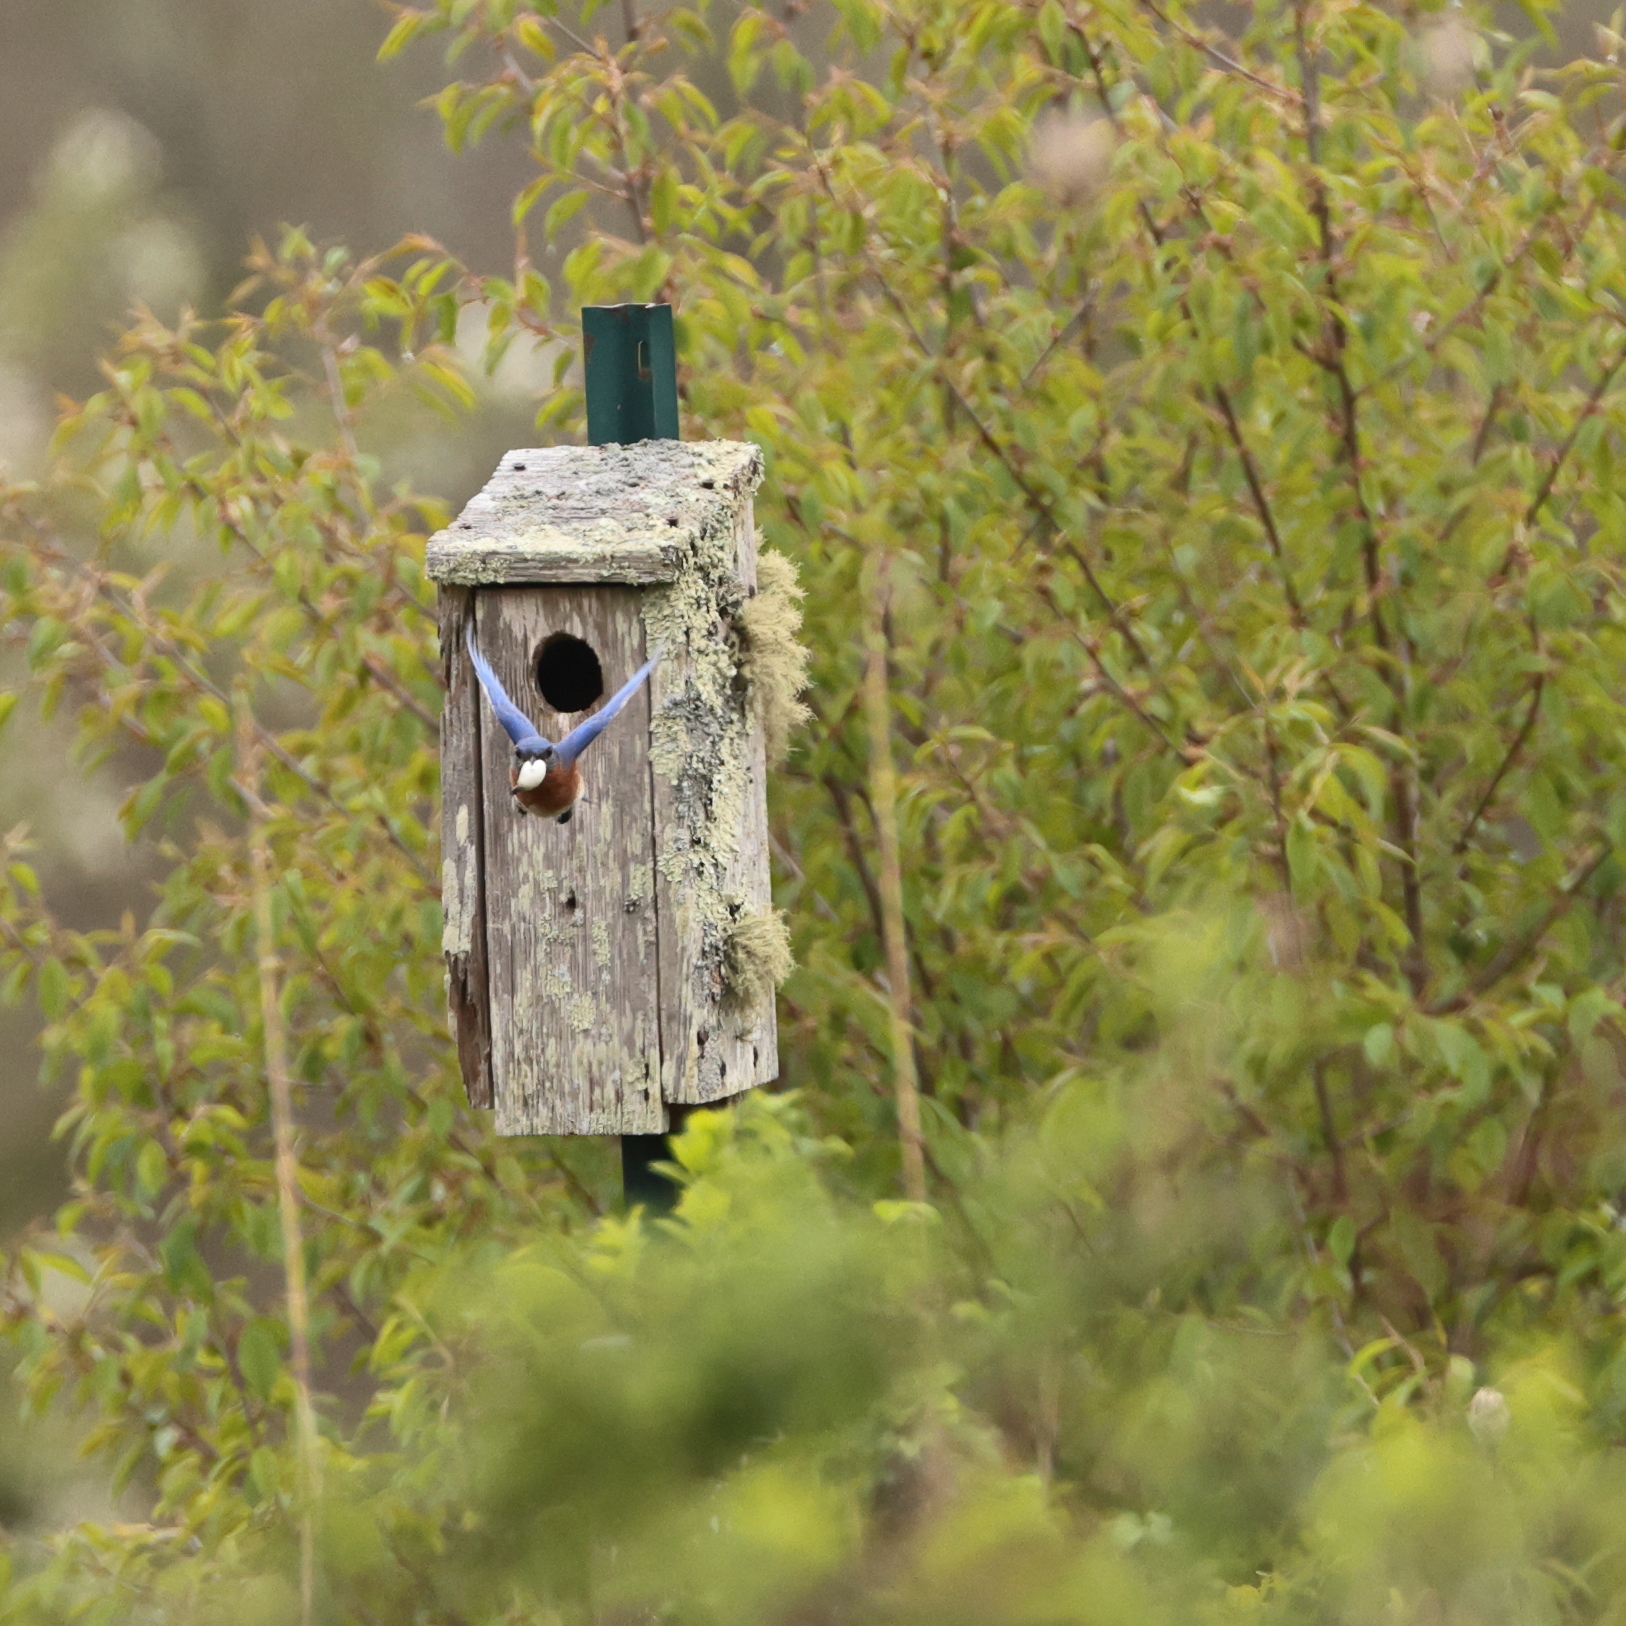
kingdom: Animalia
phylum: Chordata
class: Aves
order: Passeriformes
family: Turdidae
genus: Sialia
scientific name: Sialia sialis
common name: Eastern bluebird
